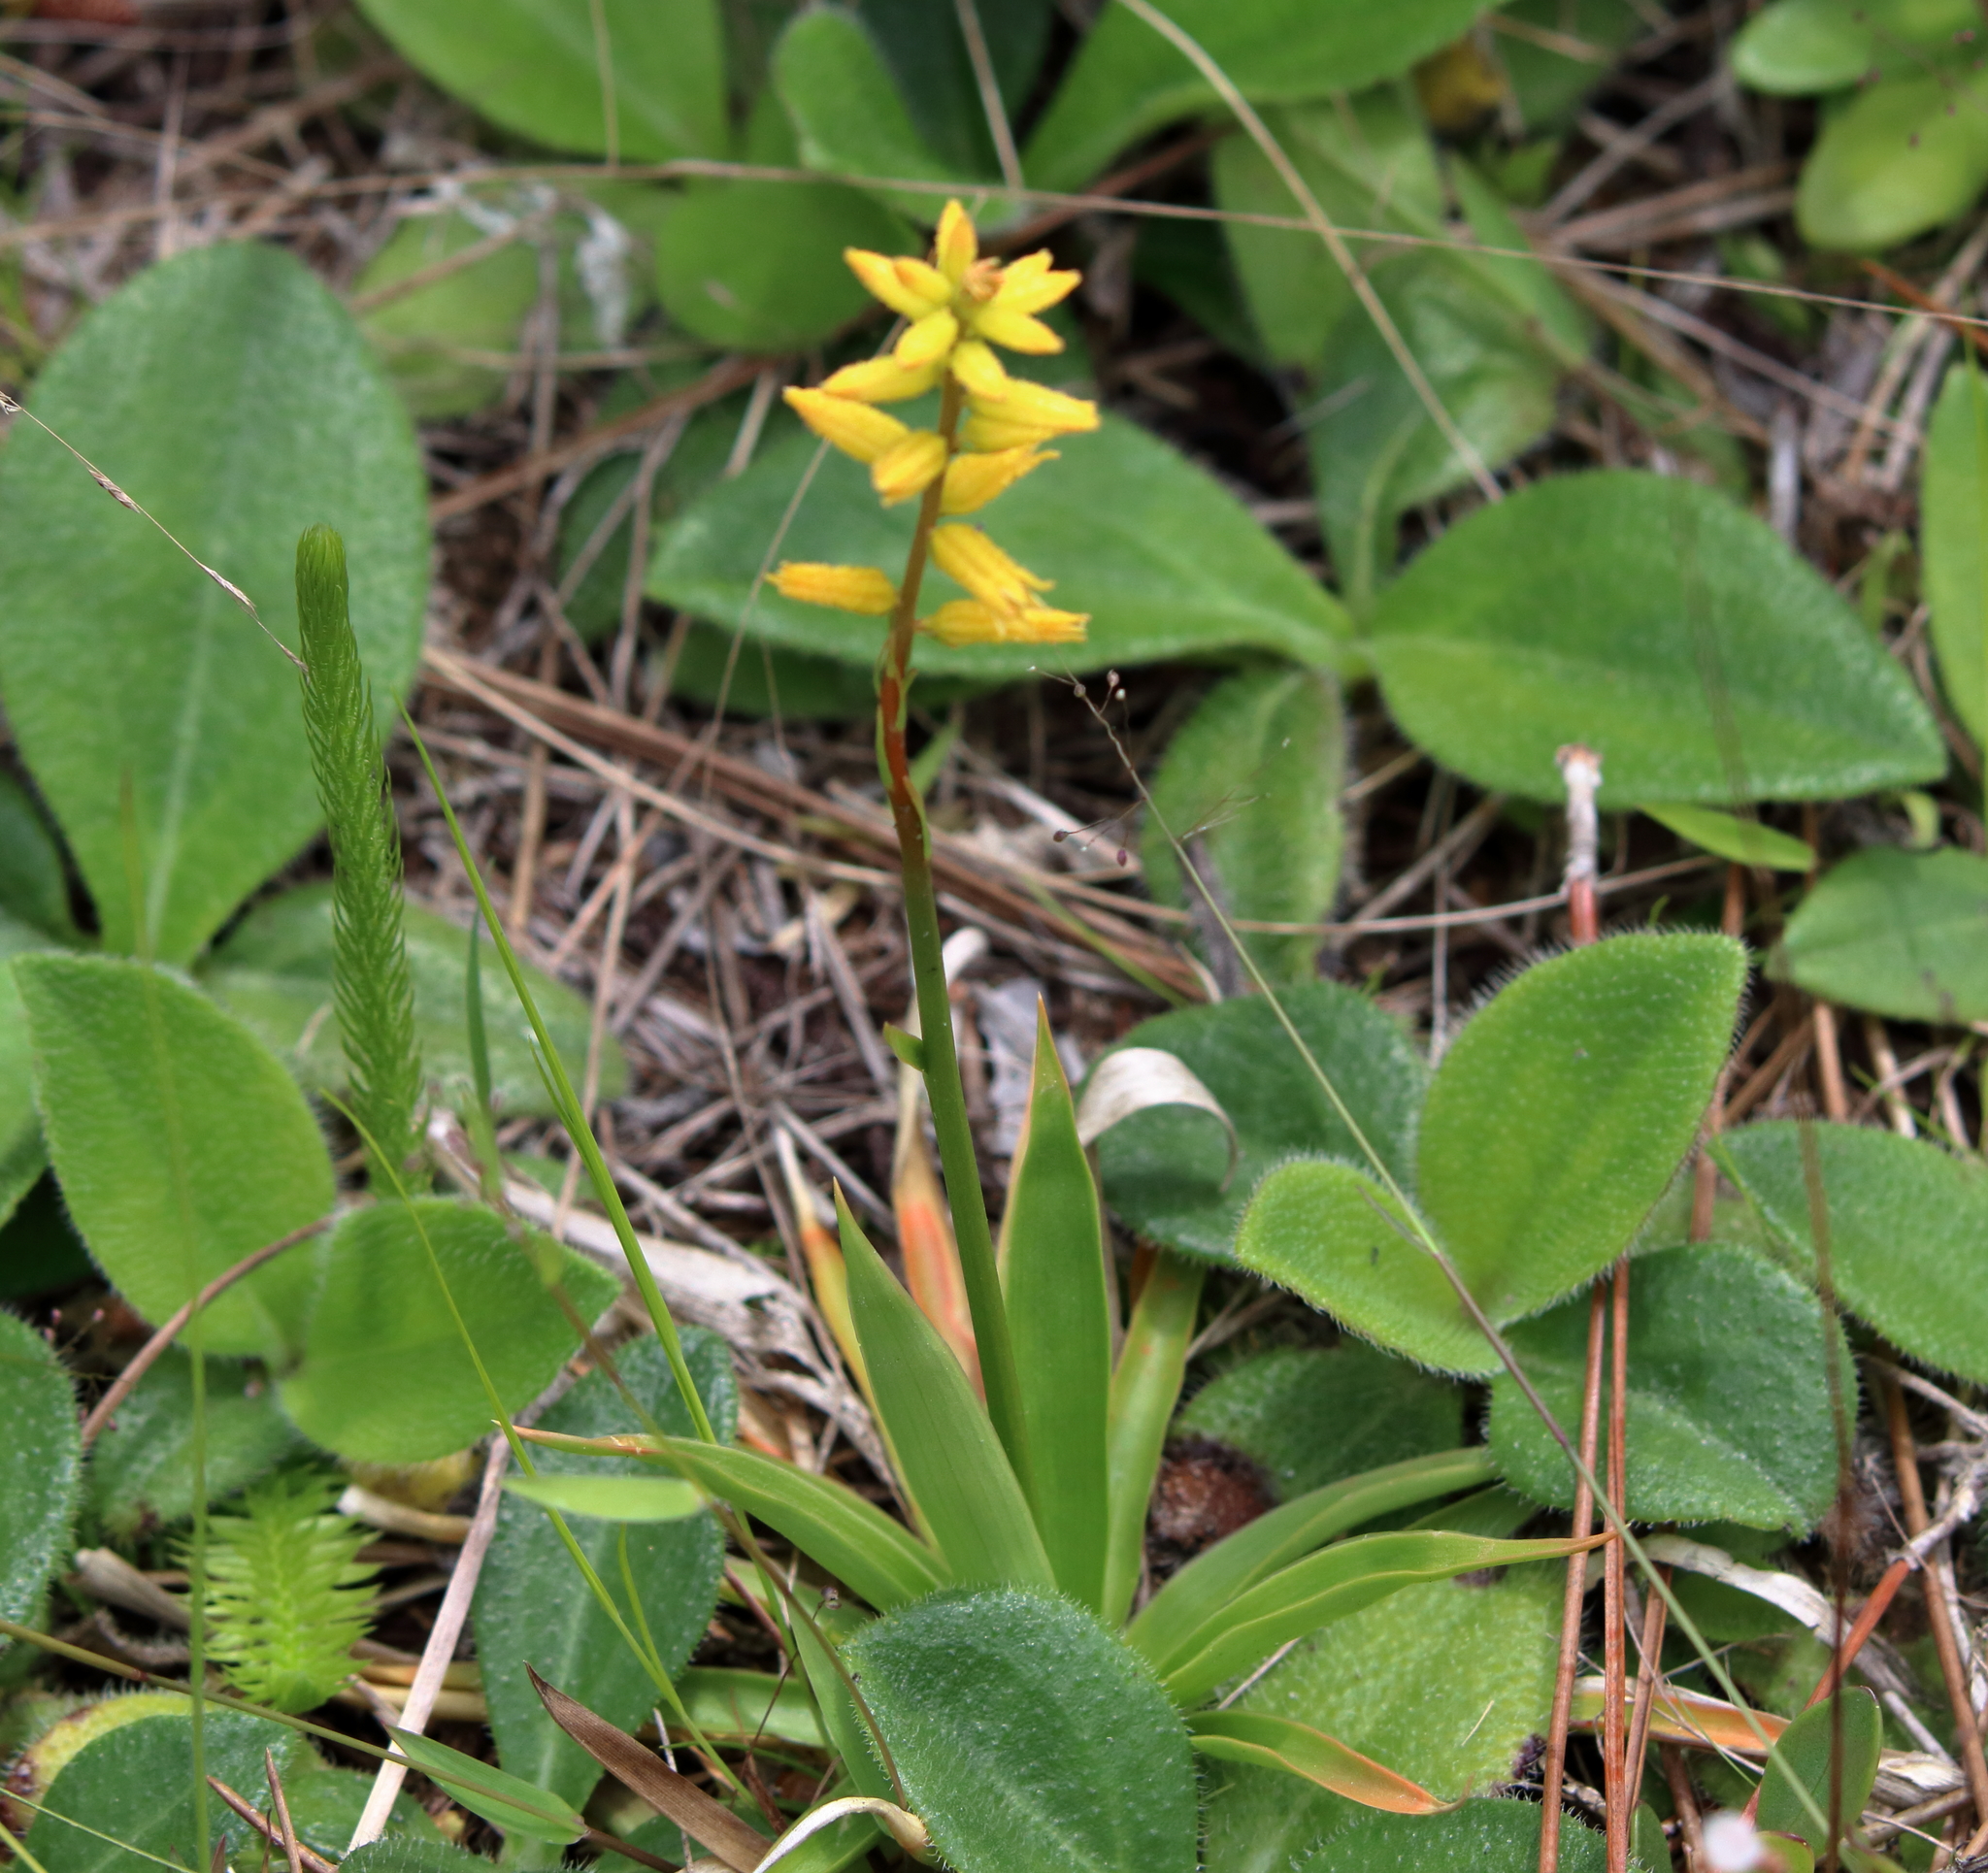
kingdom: Plantae
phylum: Tracheophyta
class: Liliopsida
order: Dioscoreales
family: Nartheciaceae
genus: Aletris
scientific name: Aletris lutea
